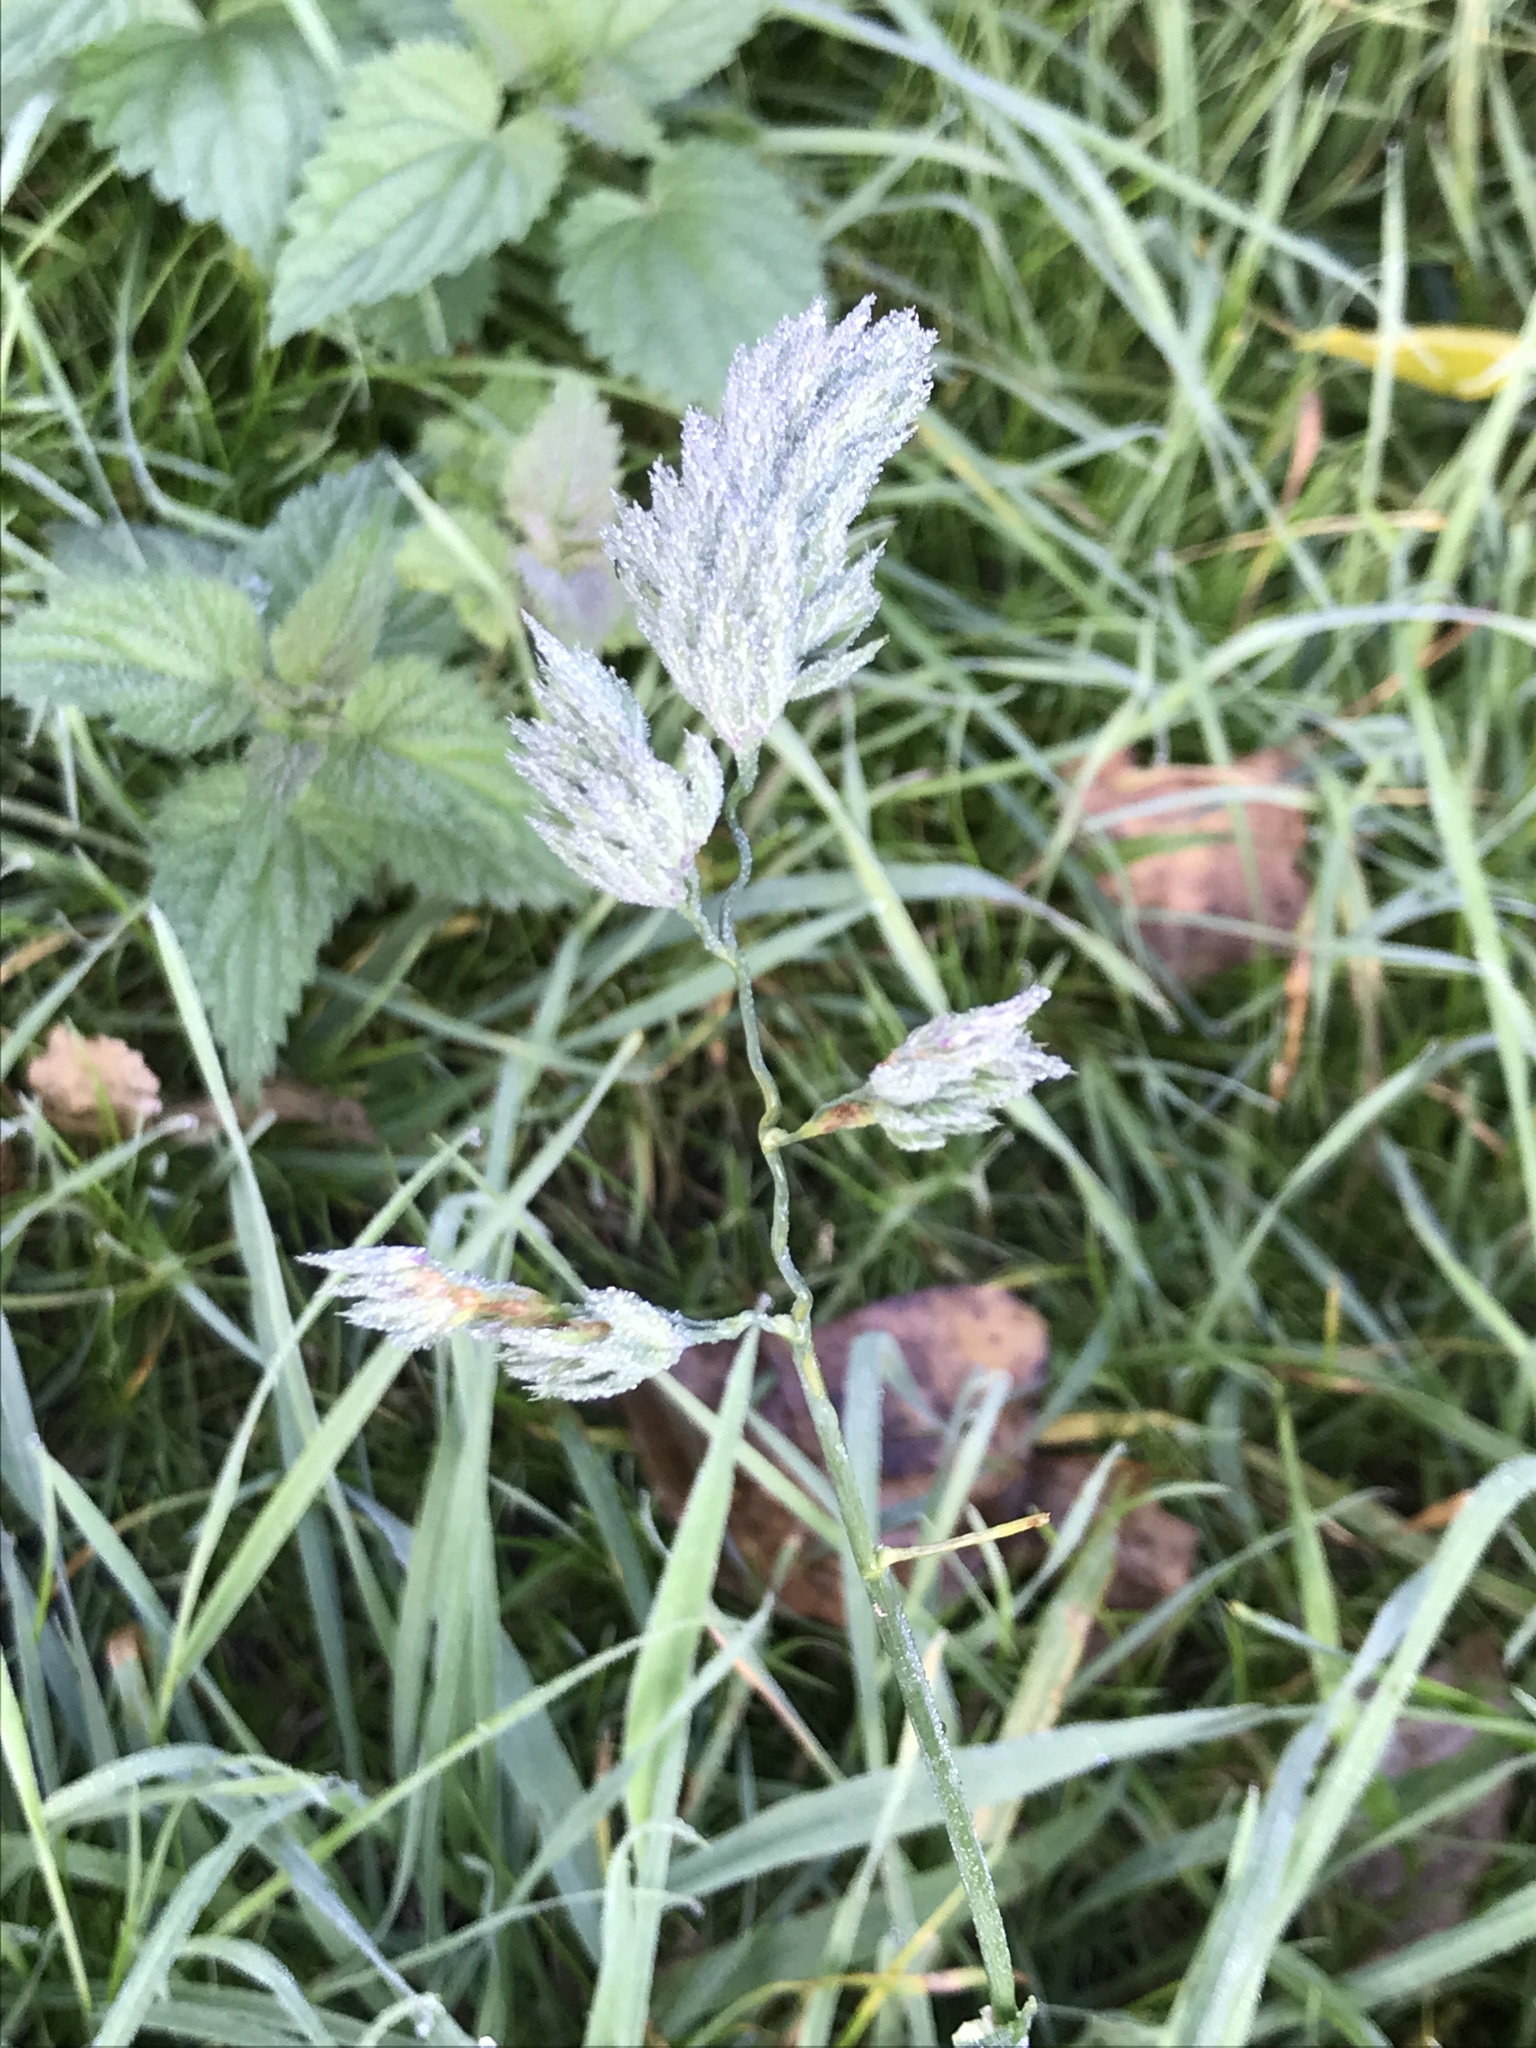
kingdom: Plantae
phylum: Tracheophyta
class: Liliopsida
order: Poales
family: Poaceae
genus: Dactylis
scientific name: Dactylis glomerata
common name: Orchardgrass
